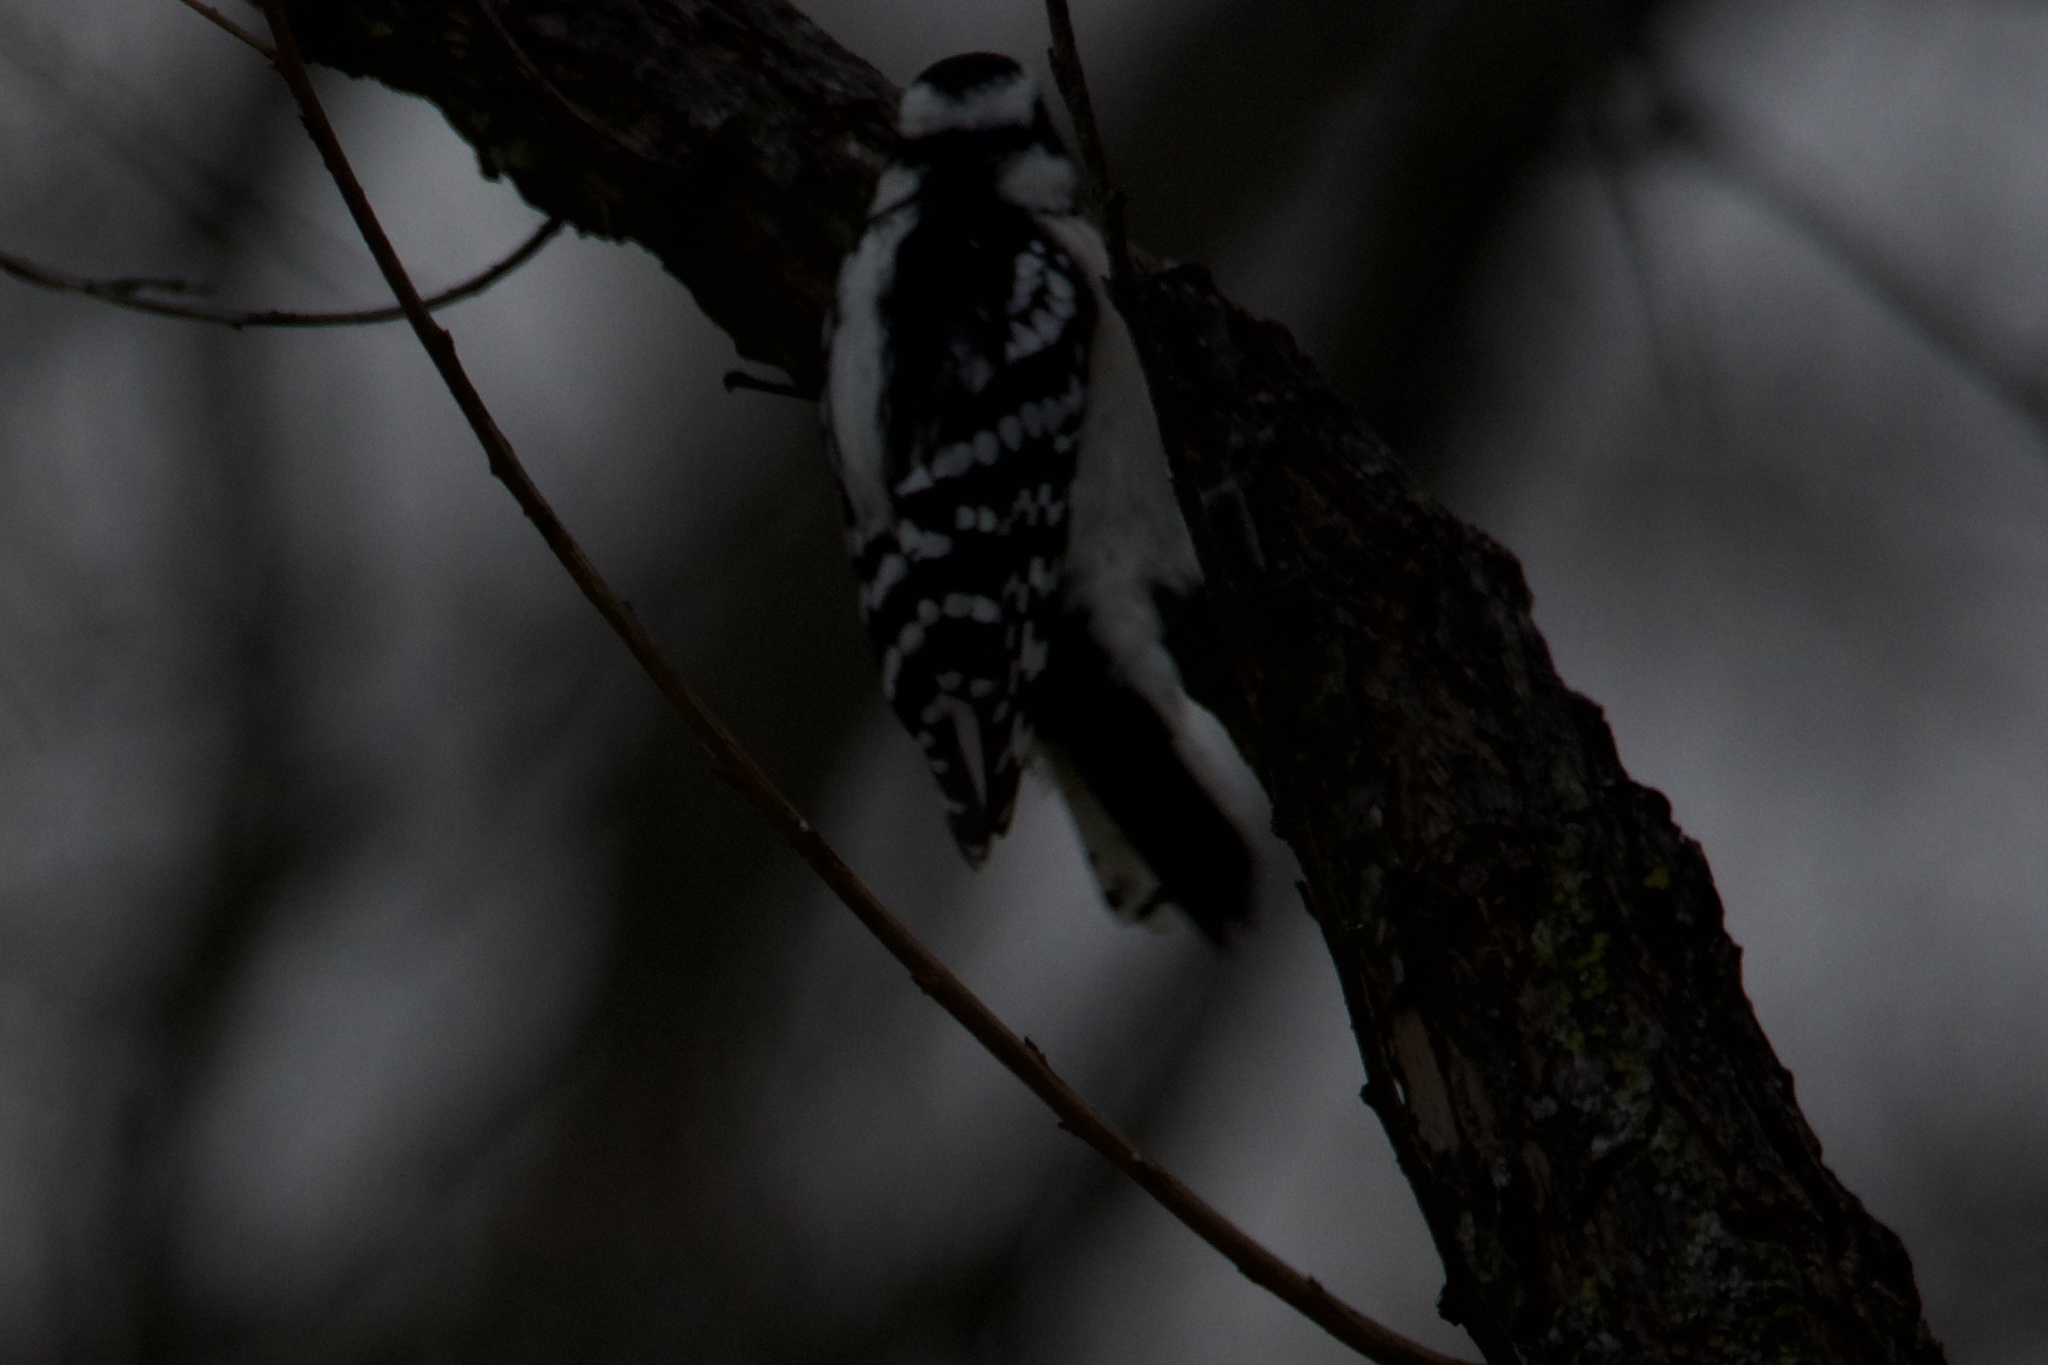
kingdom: Animalia
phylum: Chordata
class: Aves
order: Piciformes
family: Picidae
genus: Dryobates
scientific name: Dryobates pubescens
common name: Downy woodpecker
